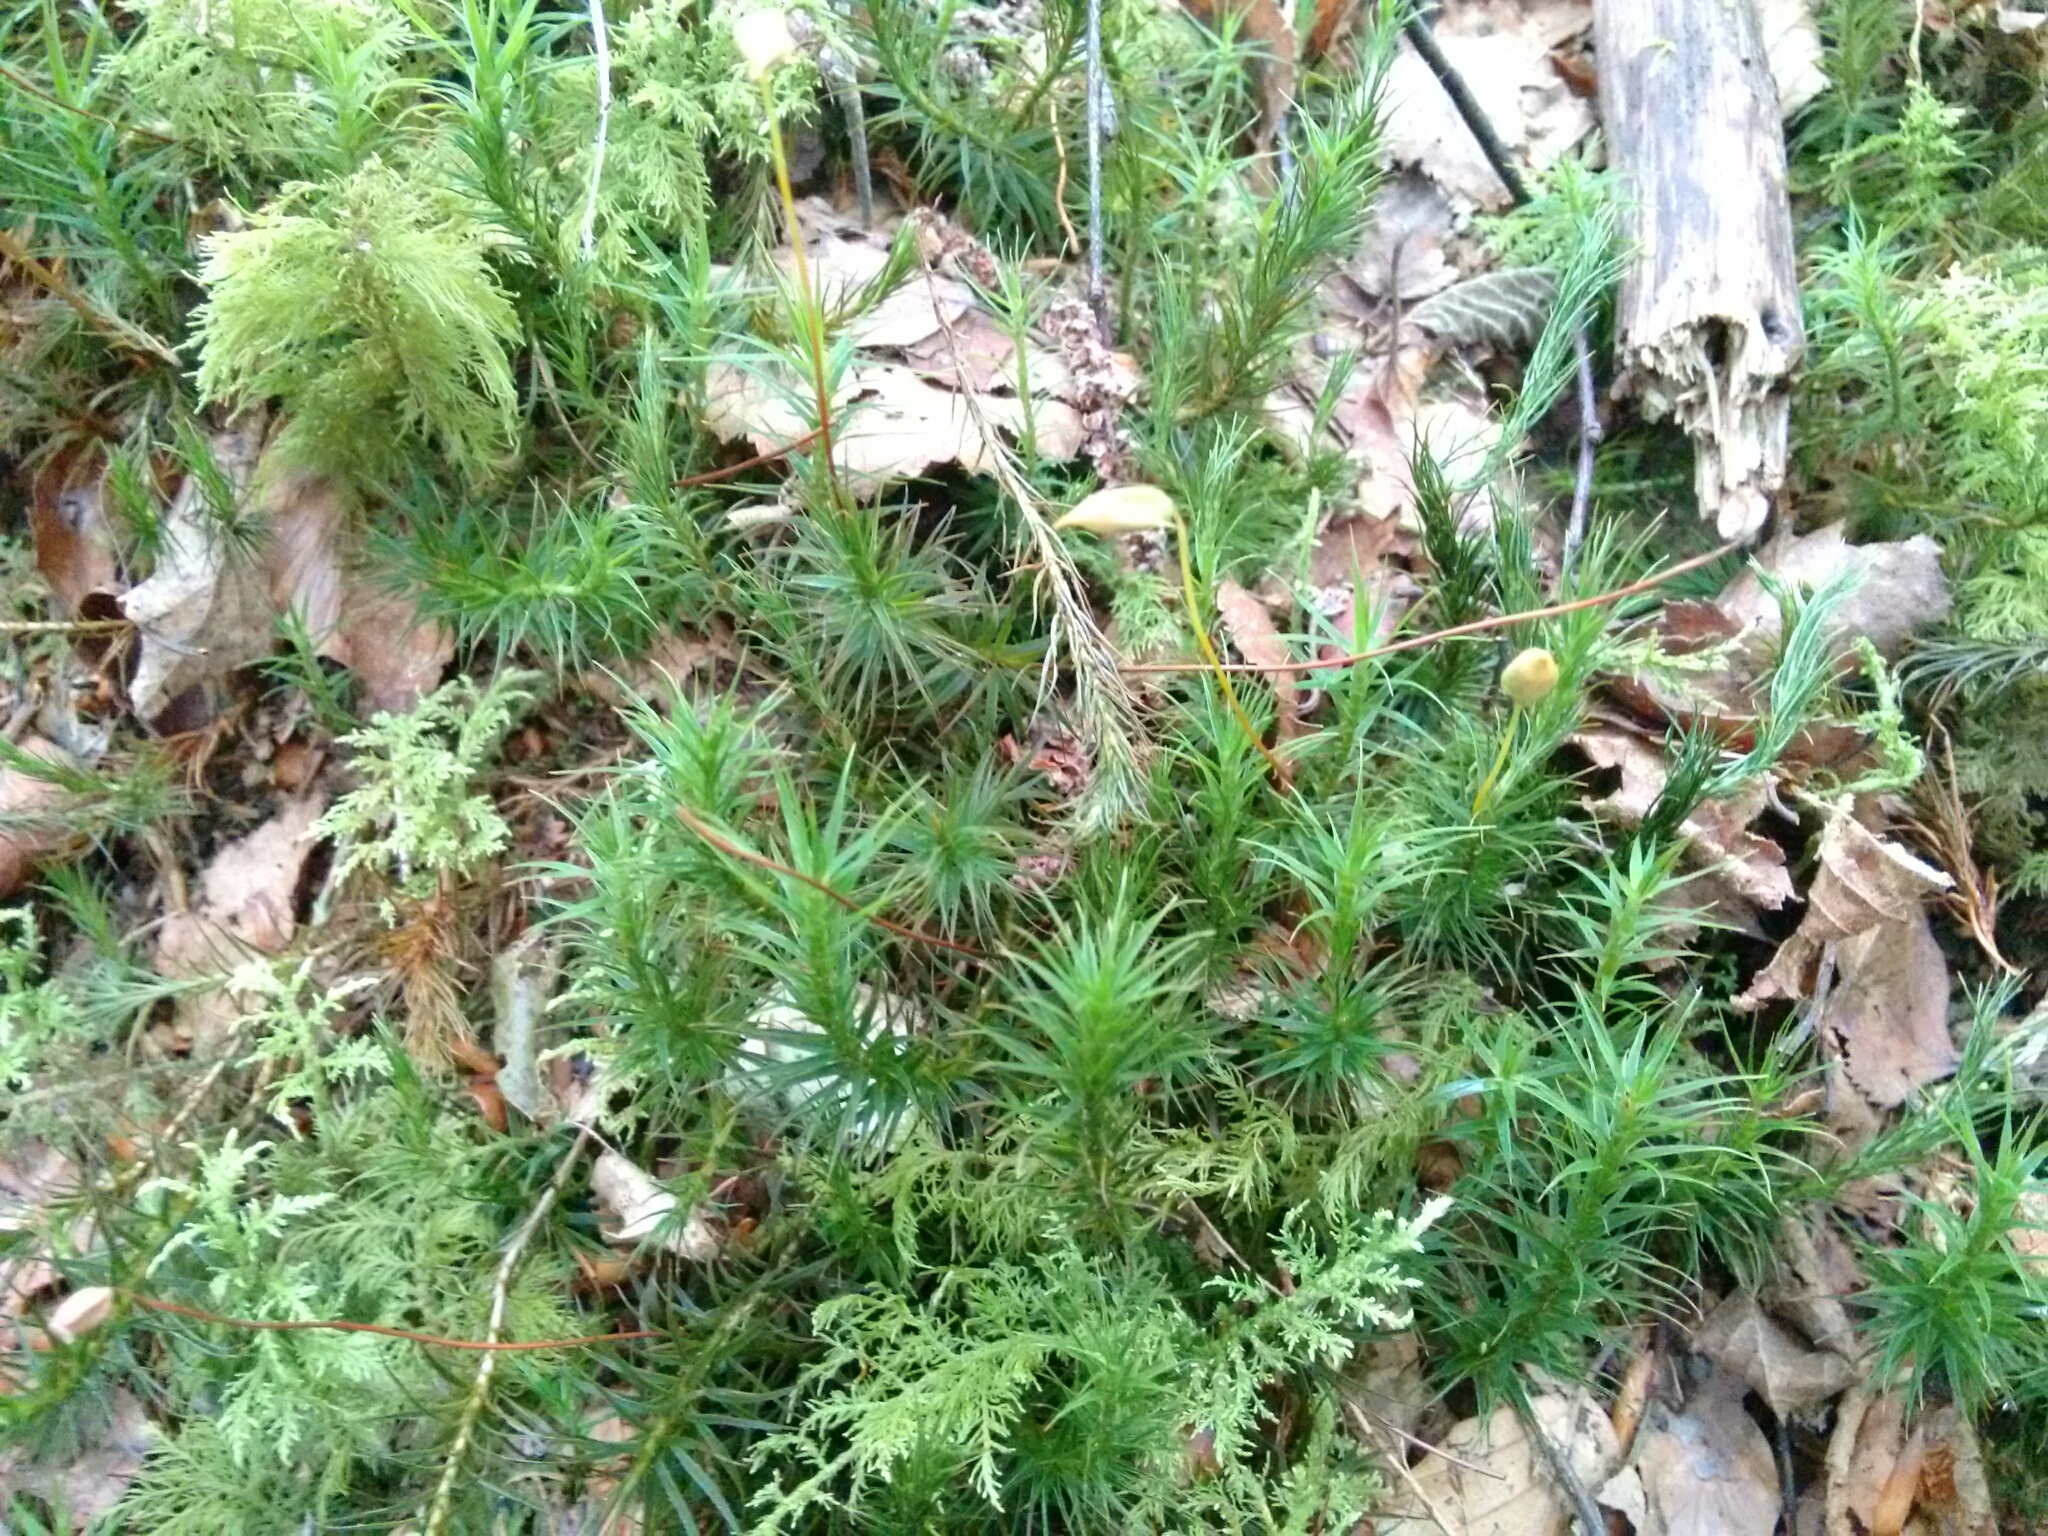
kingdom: Plantae
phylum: Bryophyta
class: Polytrichopsida
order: Polytrichales
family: Polytrichaceae
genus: Polytrichum
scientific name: Polytrichum commune
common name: Common haircap
